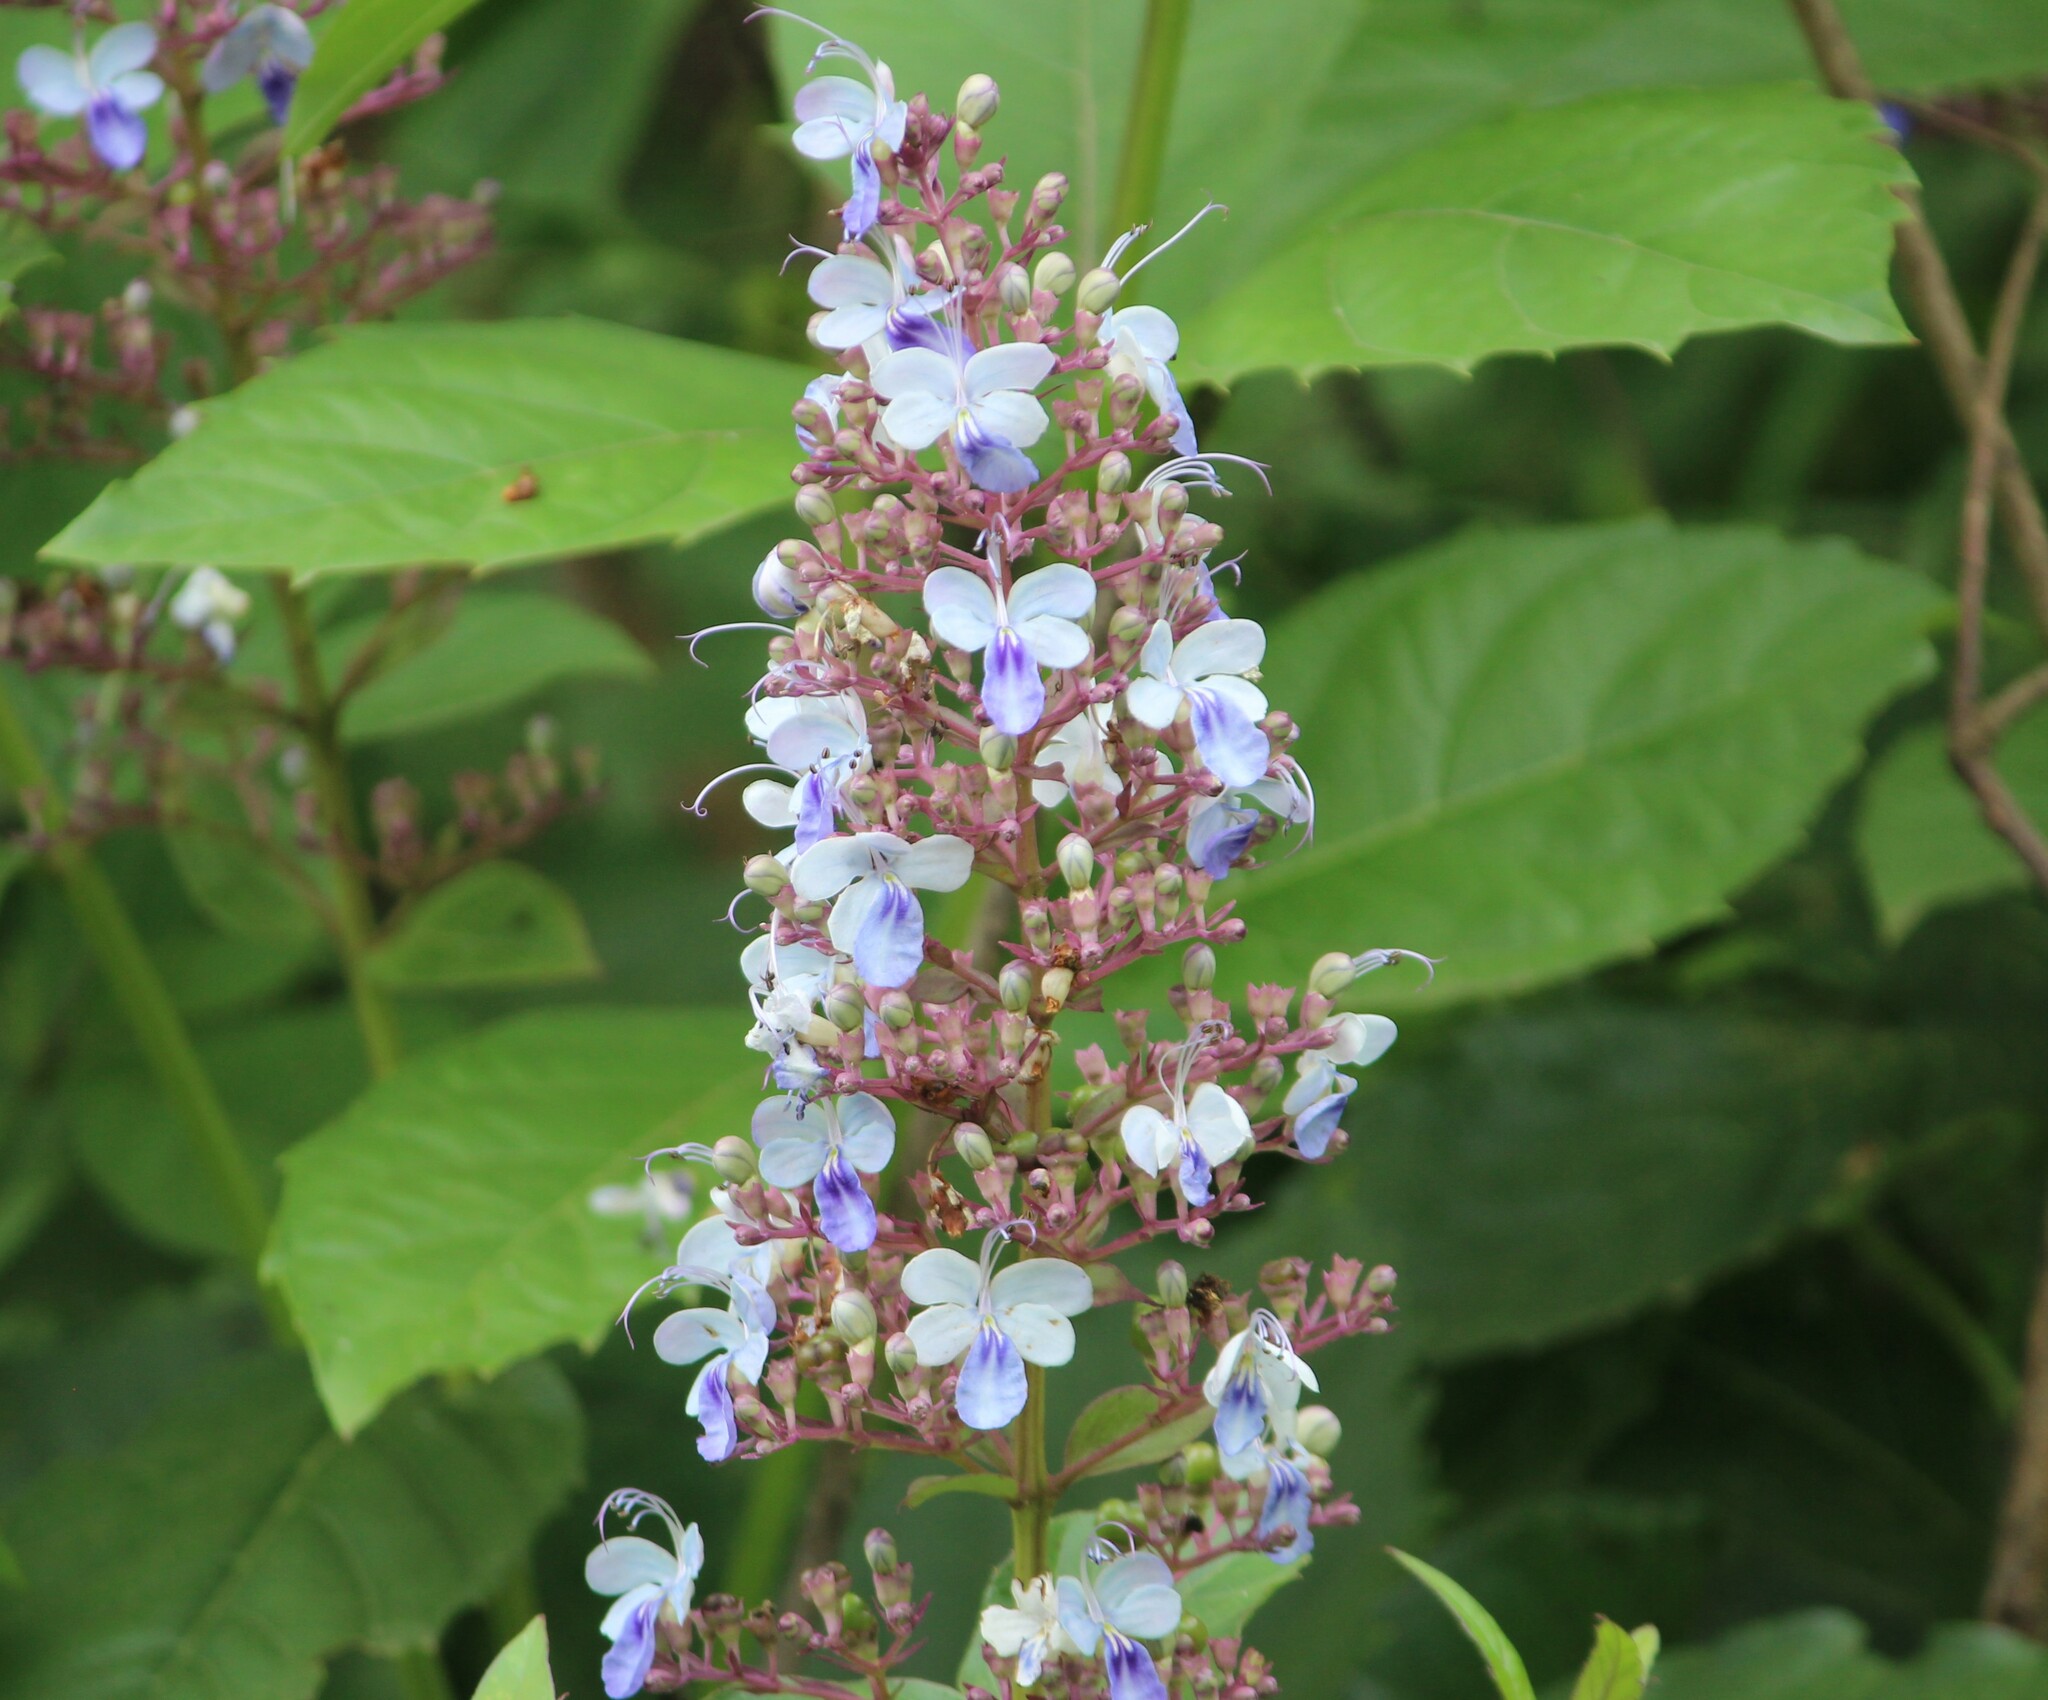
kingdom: Plantae
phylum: Tracheophyta
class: Magnoliopsida
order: Lamiales
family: Lamiaceae
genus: Rotheca
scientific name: Rotheca serrata
